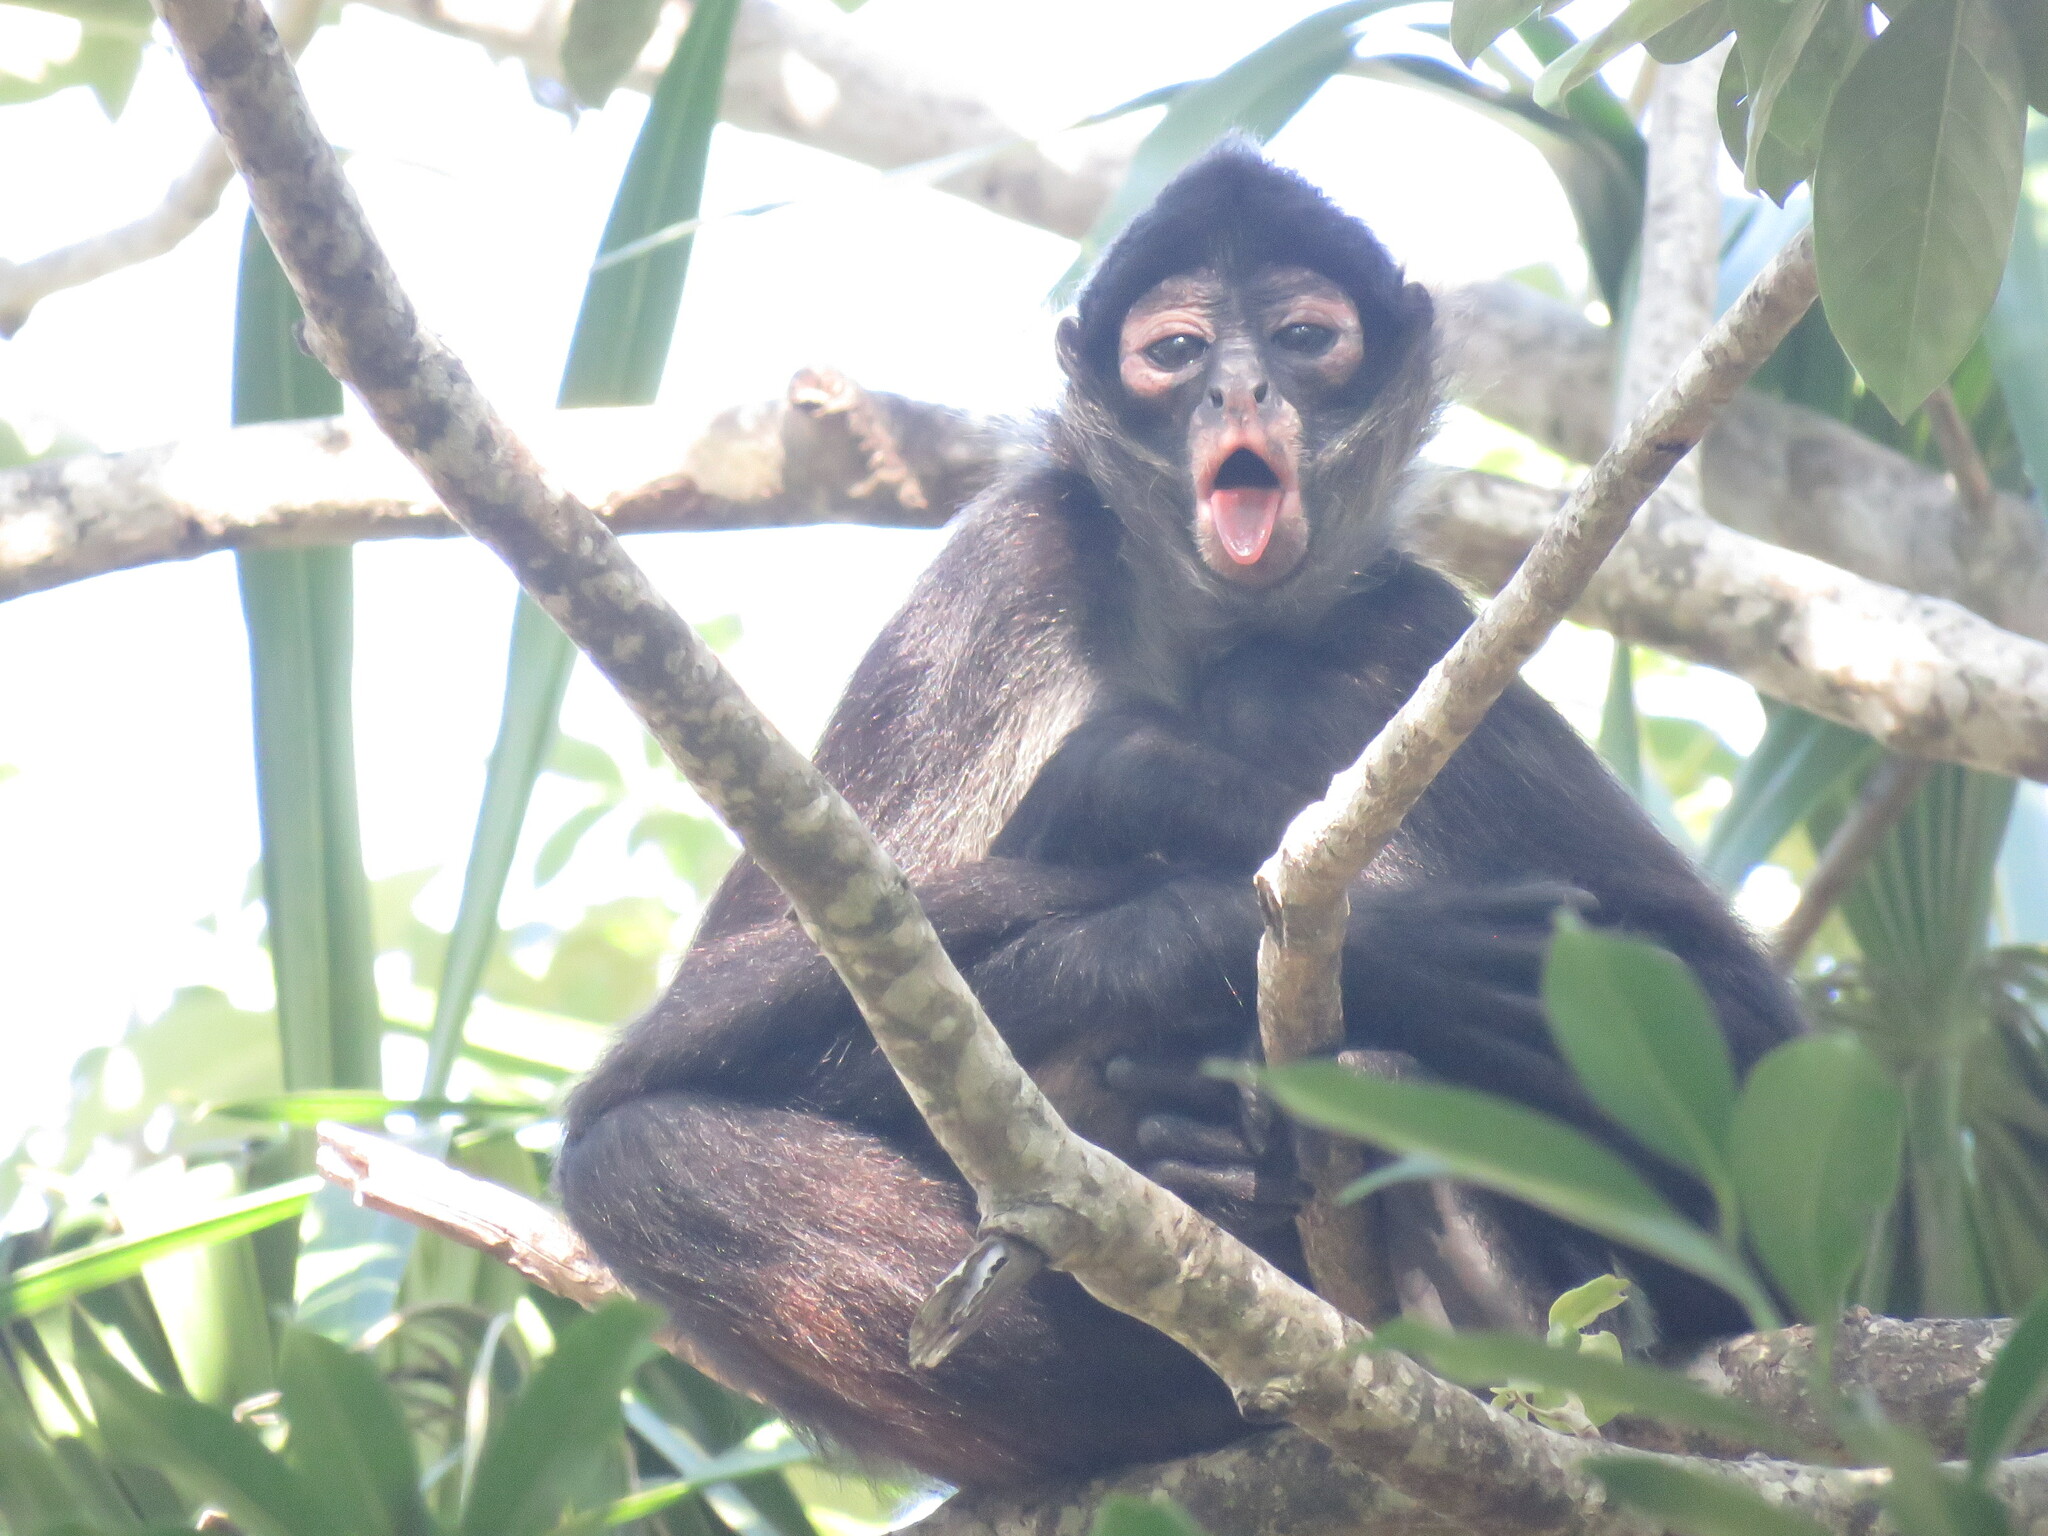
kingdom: Animalia
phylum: Chordata
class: Mammalia
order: Primates
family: Atelidae
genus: Ateles
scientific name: Ateles geoffroyi
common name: Black-handed spider monkey
